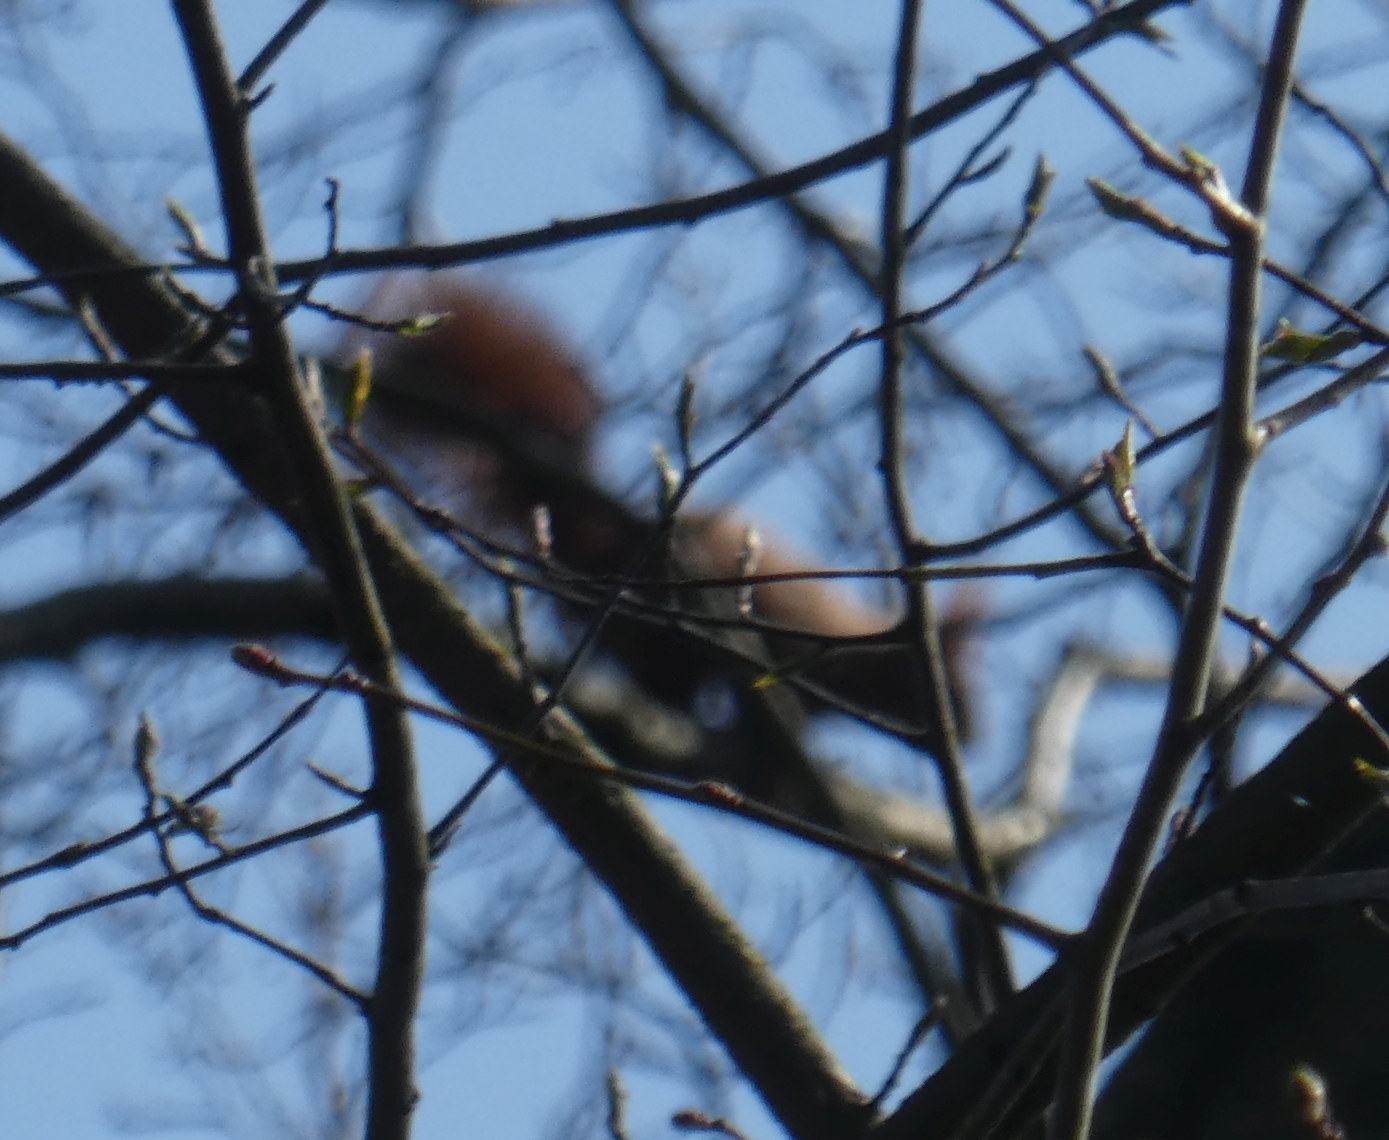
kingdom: Animalia
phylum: Chordata
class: Mammalia
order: Rodentia
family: Sciuridae
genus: Sciurus
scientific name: Sciurus vulgaris
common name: Eurasian red squirrel
